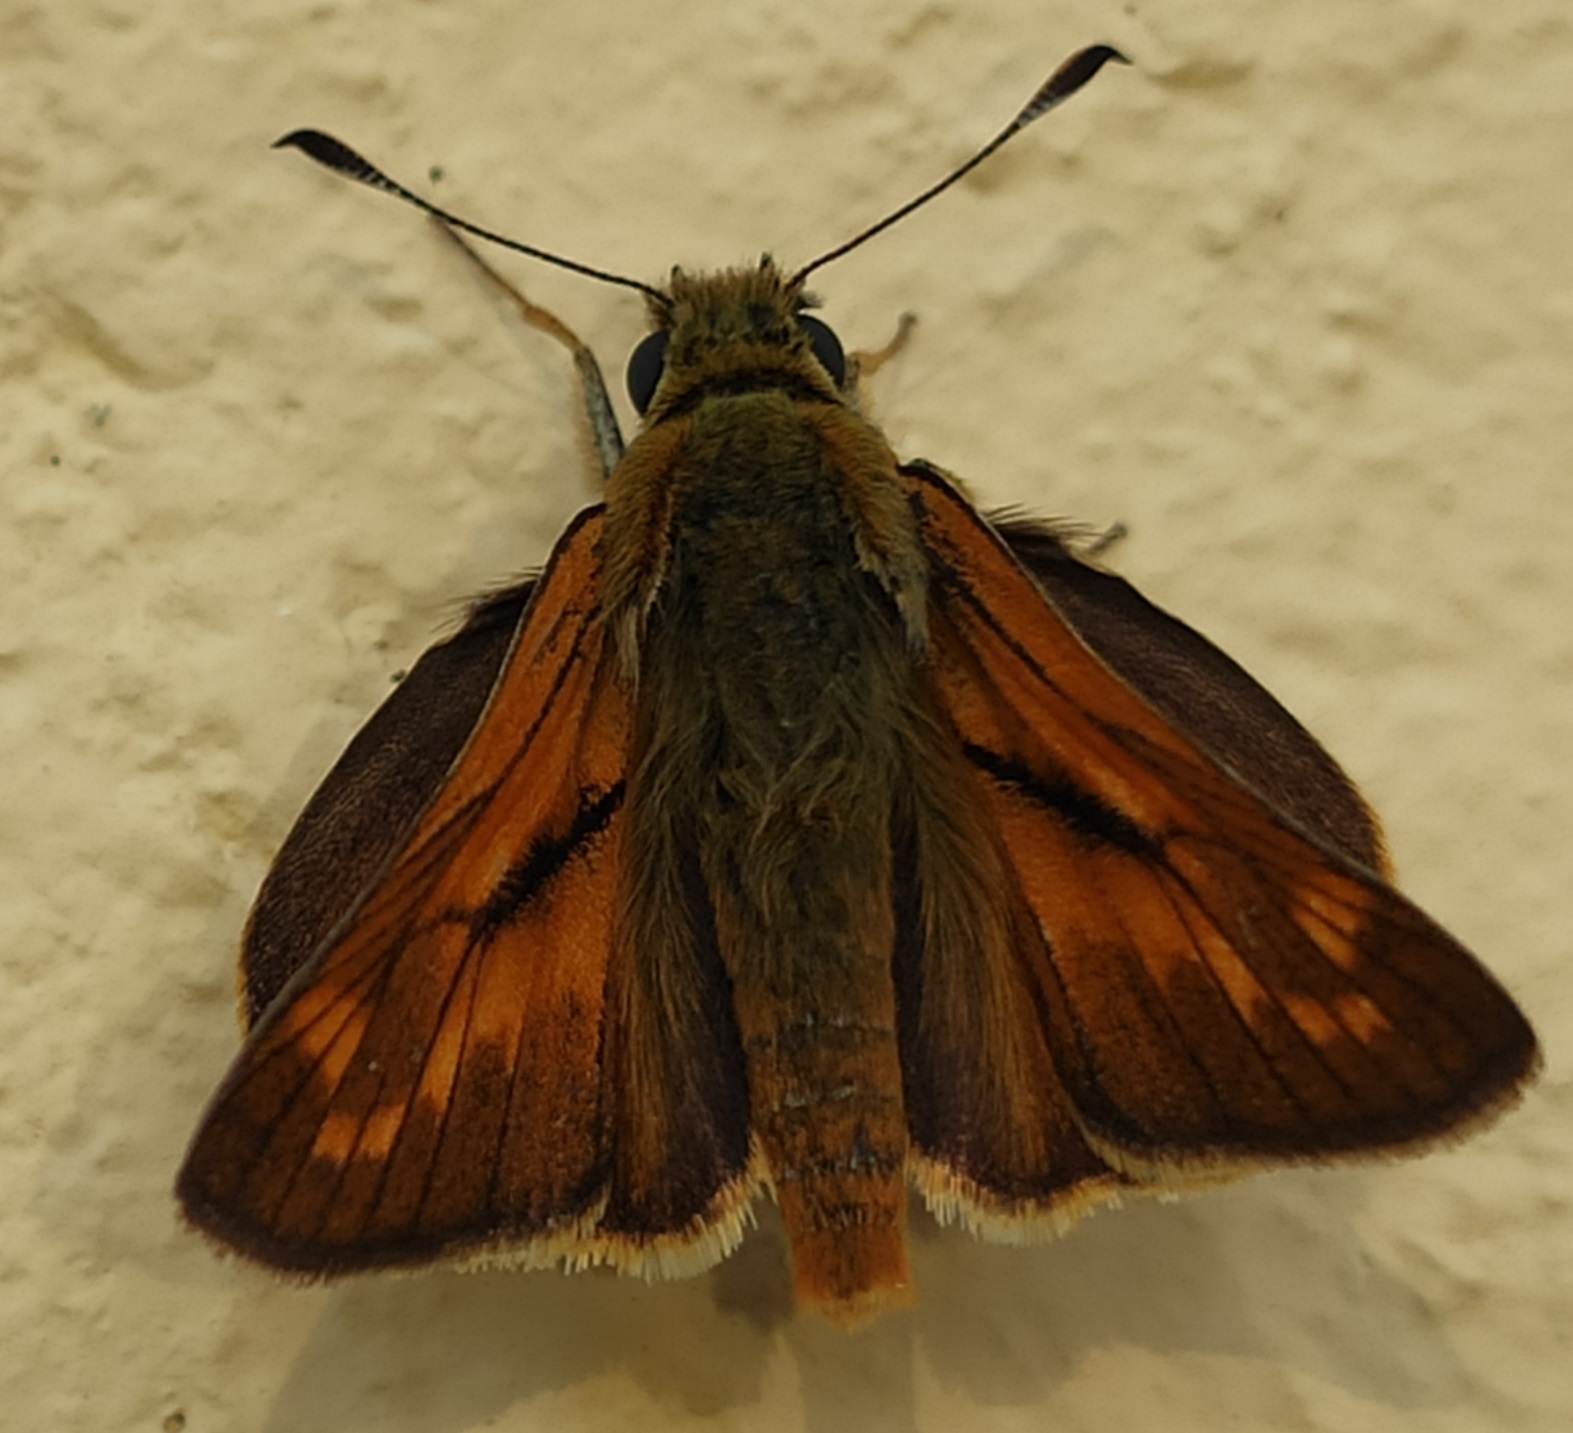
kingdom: Animalia
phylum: Arthropoda
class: Insecta
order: Lepidoptera
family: Hesperiidae
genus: Ochlodes
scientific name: Ochlodes venata
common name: Large skipper
